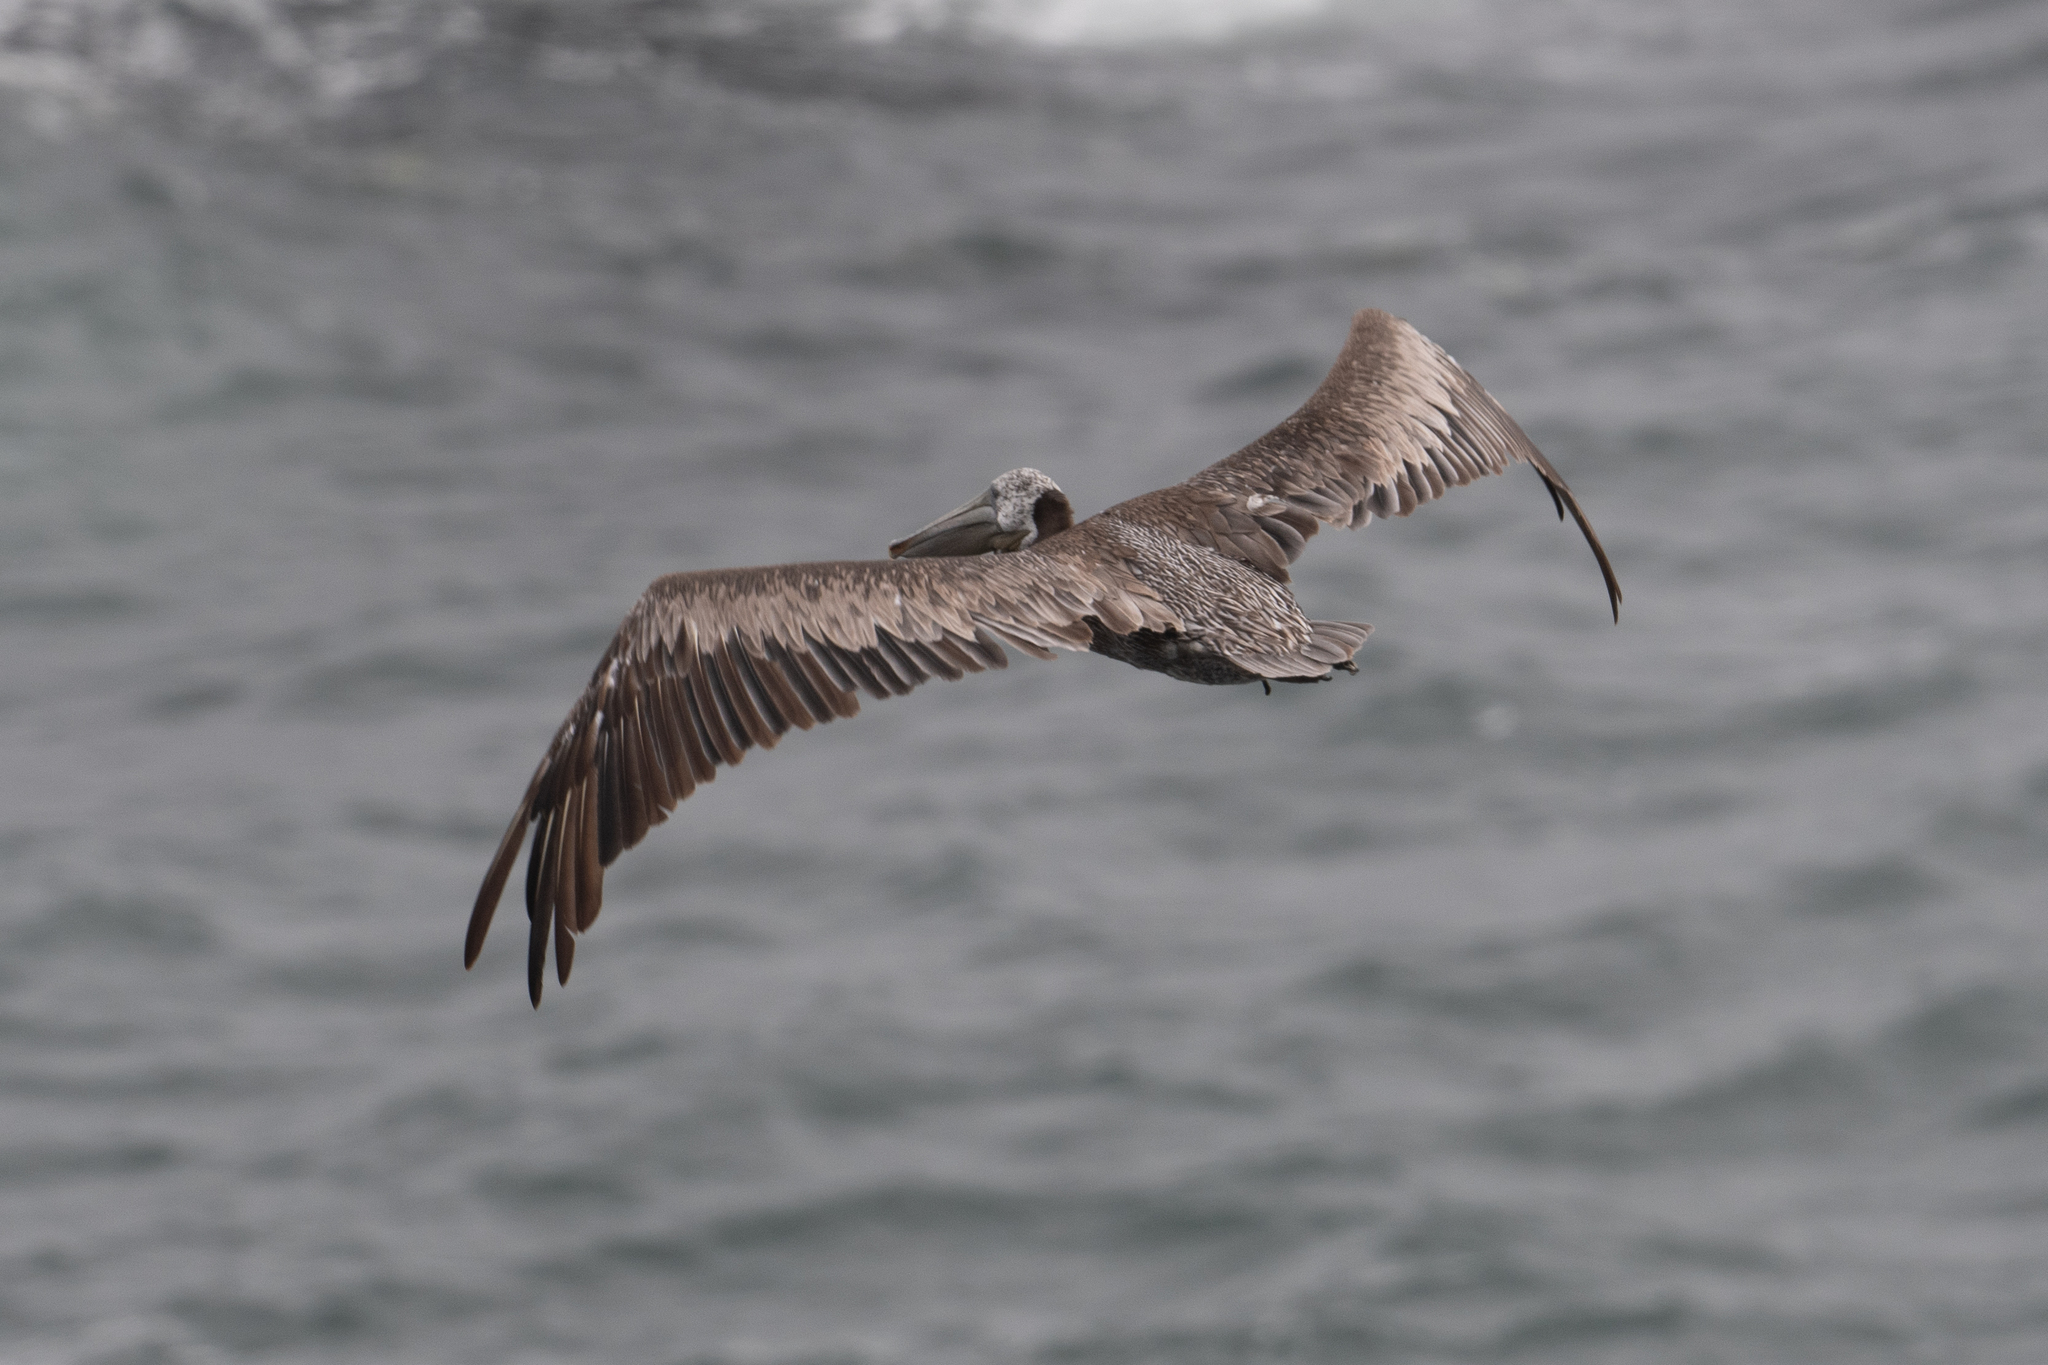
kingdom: Animalia
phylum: Chordata
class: Aves
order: Pelecaniformes
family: Pelecanidae
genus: Pelecanus
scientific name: Pelecanus occidentalis
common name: Brown pelican
